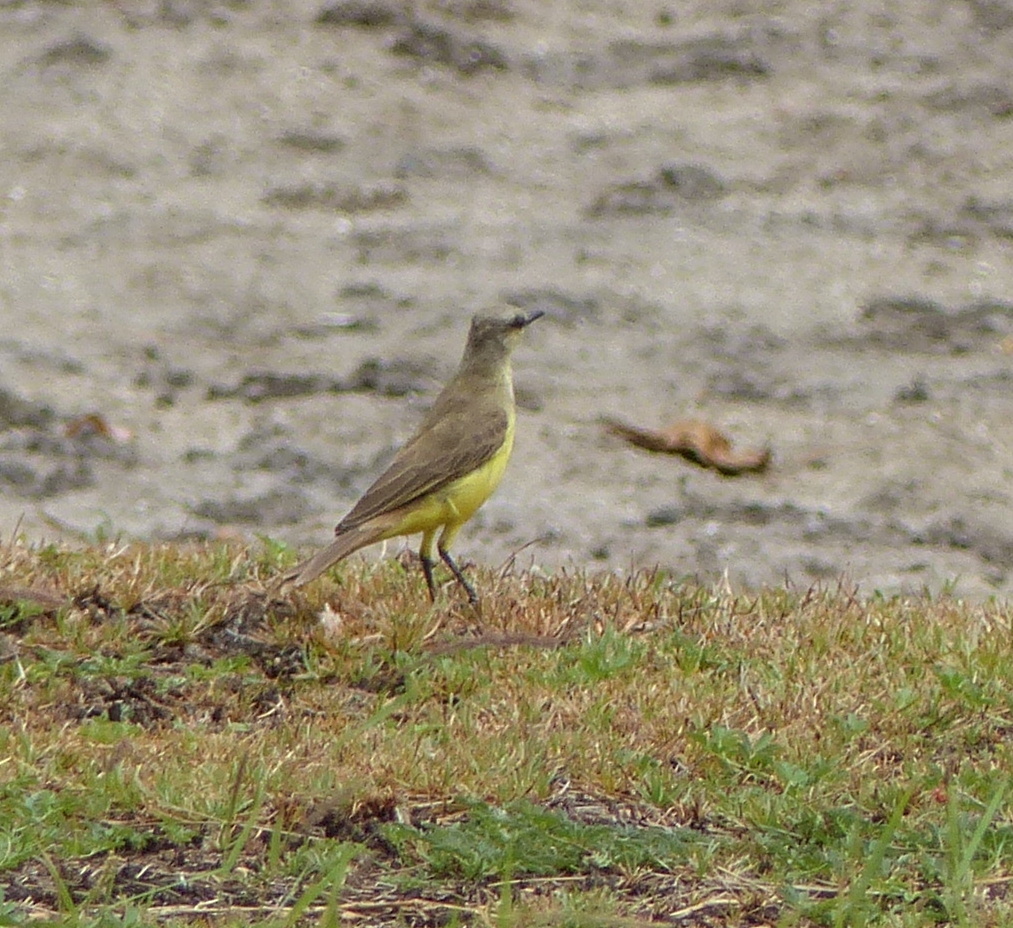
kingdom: Animalia
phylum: Chordata
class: Aves
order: Passeriformes
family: Tyrannidae
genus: Machetornis
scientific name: Machetornis rixosa
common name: Cattle tyrant
